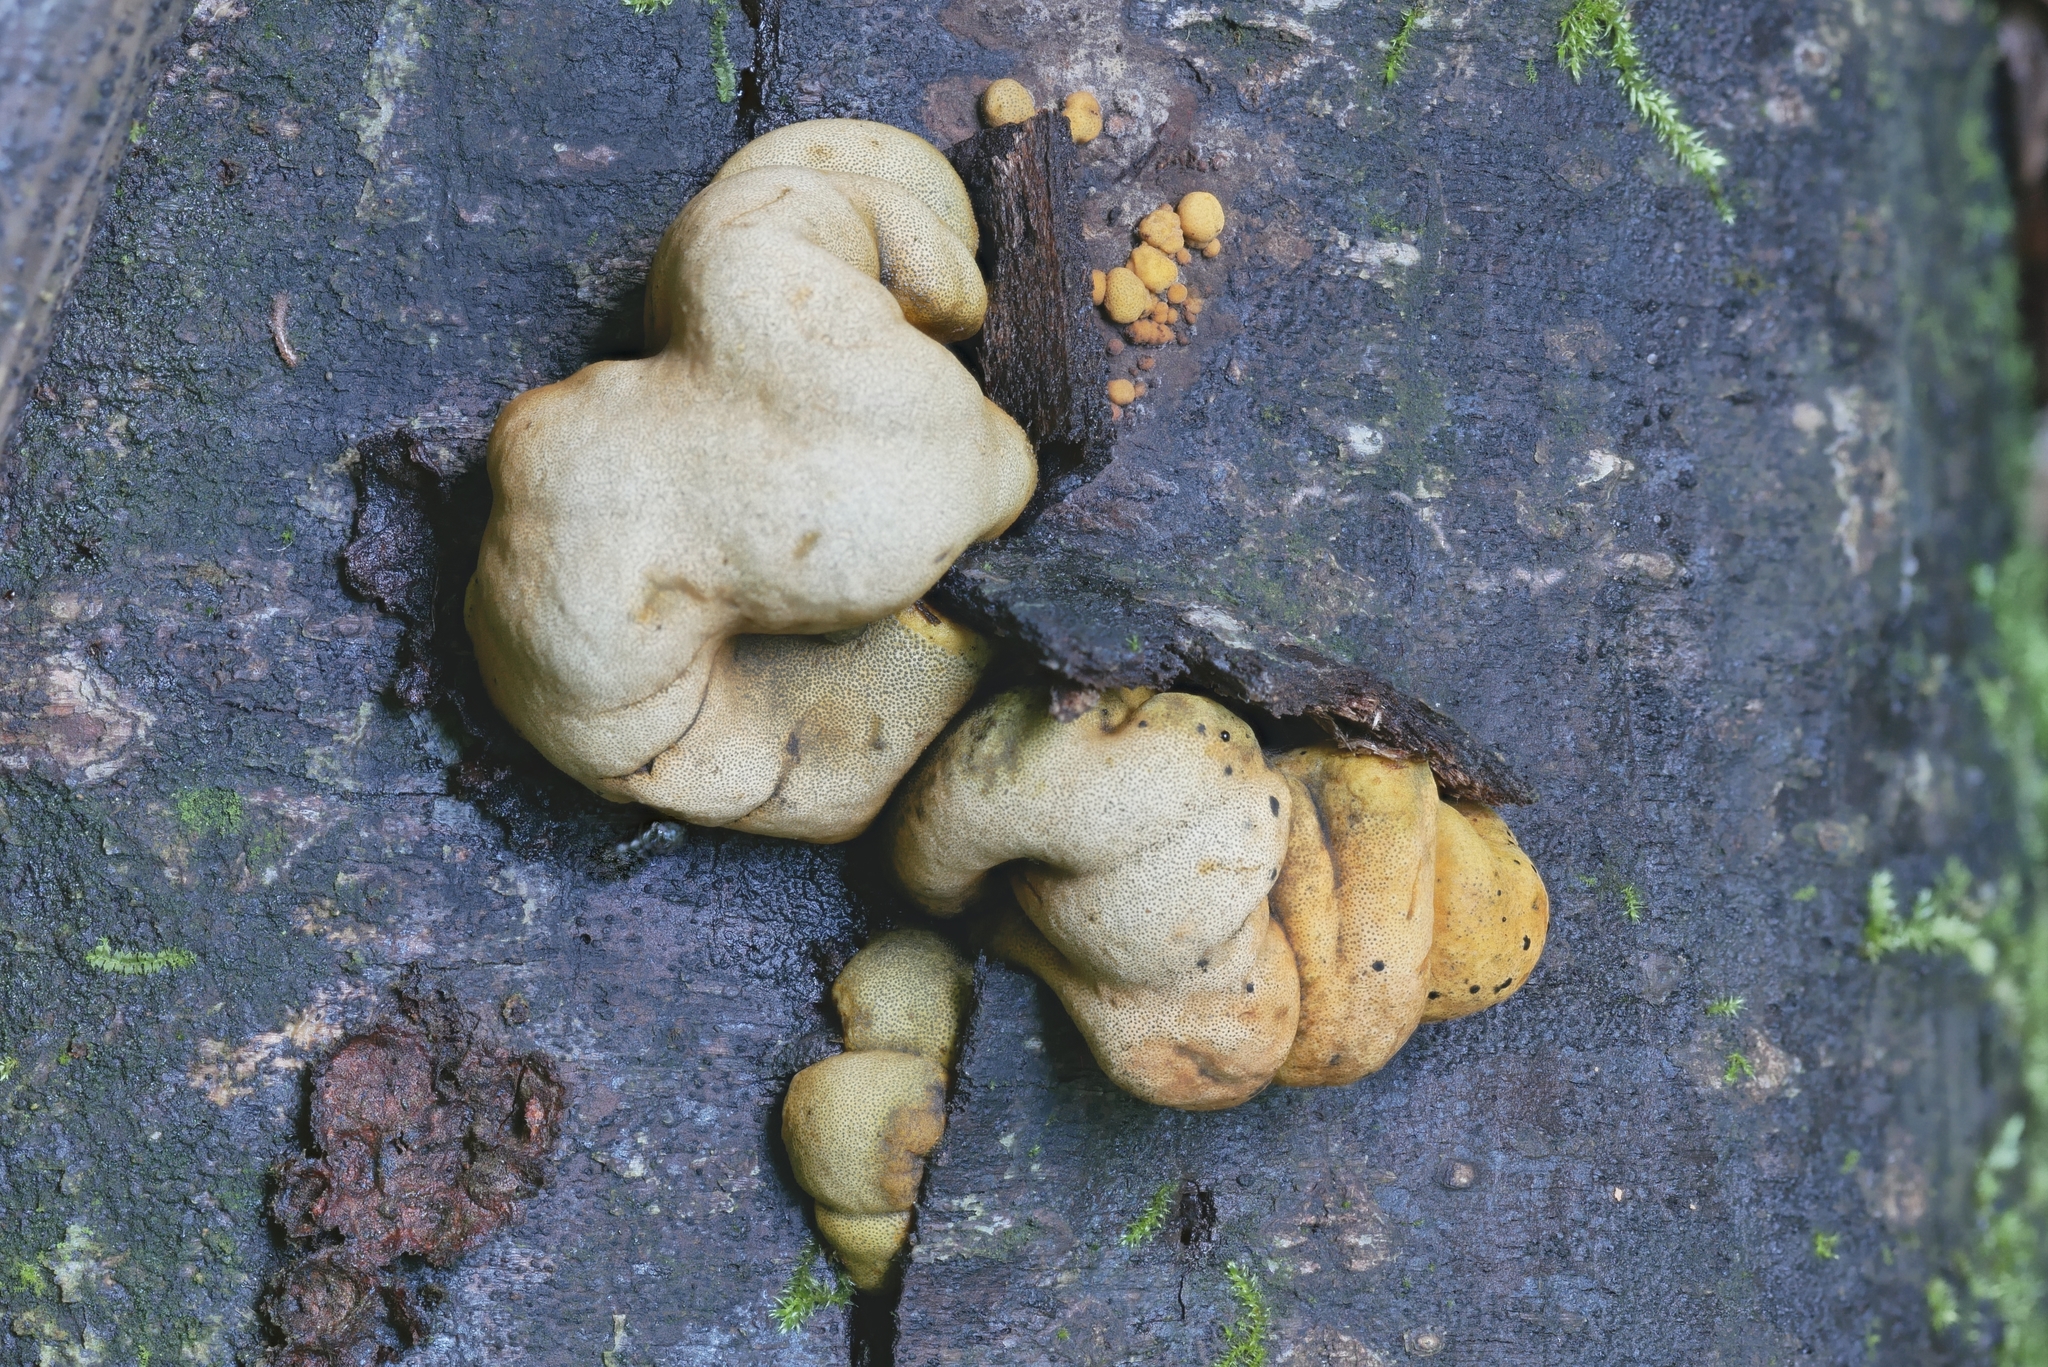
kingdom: Fungi
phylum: Ascomycota
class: Sordariomycetes
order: Xylariales
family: Hypoxylaceae
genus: Thuemenella
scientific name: Thuemenella cubispora
